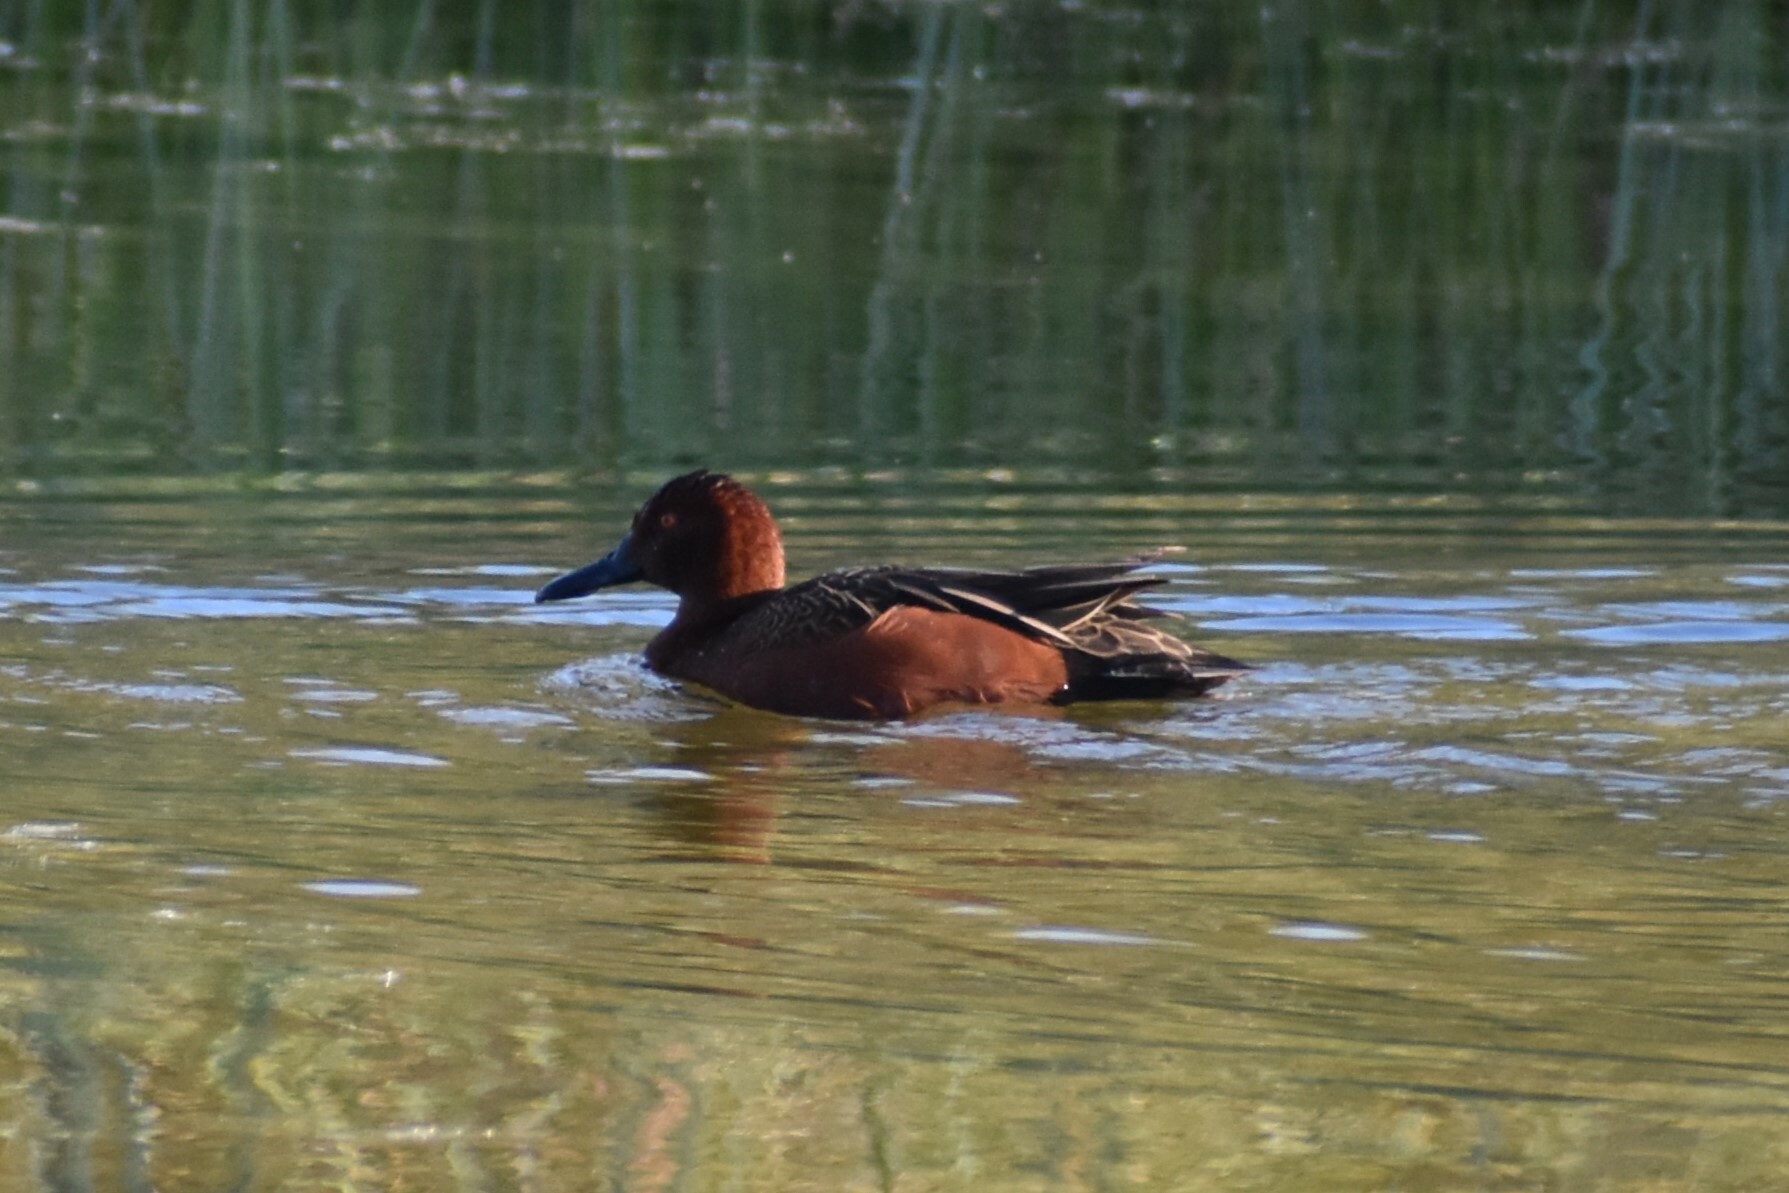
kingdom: Animalia
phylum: Chordata
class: Aves
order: Anseriformes
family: Anatidae
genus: Spatula
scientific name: Spatula cyanoptera
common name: Cinnamon teal
